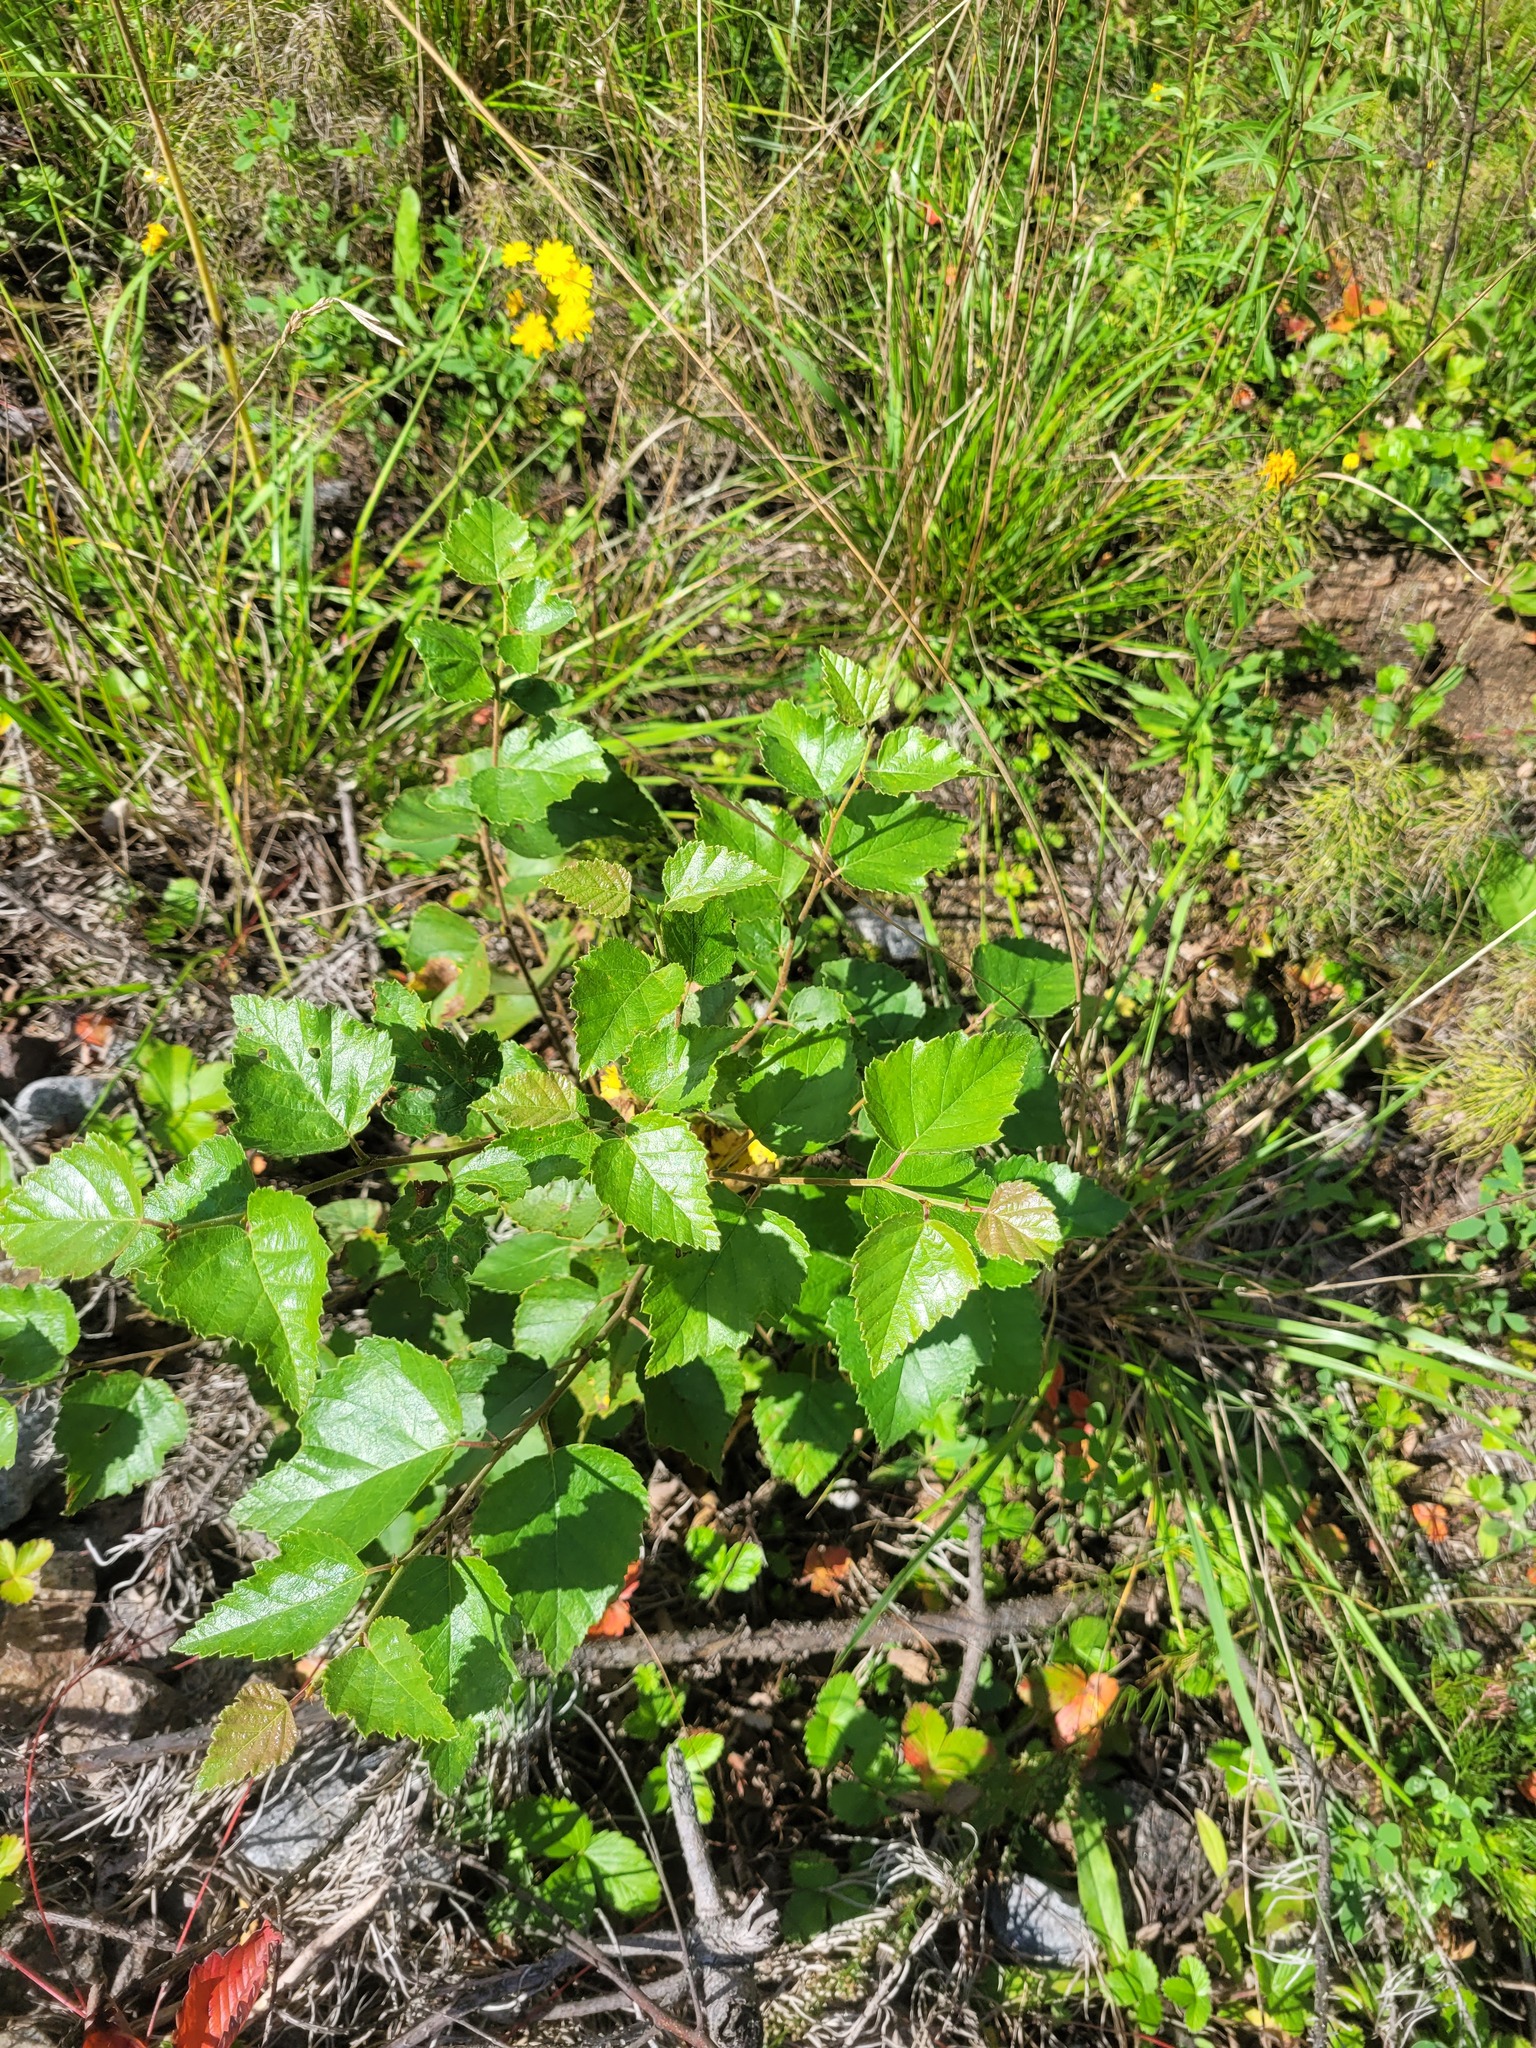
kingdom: Plantae
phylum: Tracheophyta
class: Magnoliopsida
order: Fagales
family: Betulaceae
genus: Betula
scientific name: Betula pubescens
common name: Downy birch
